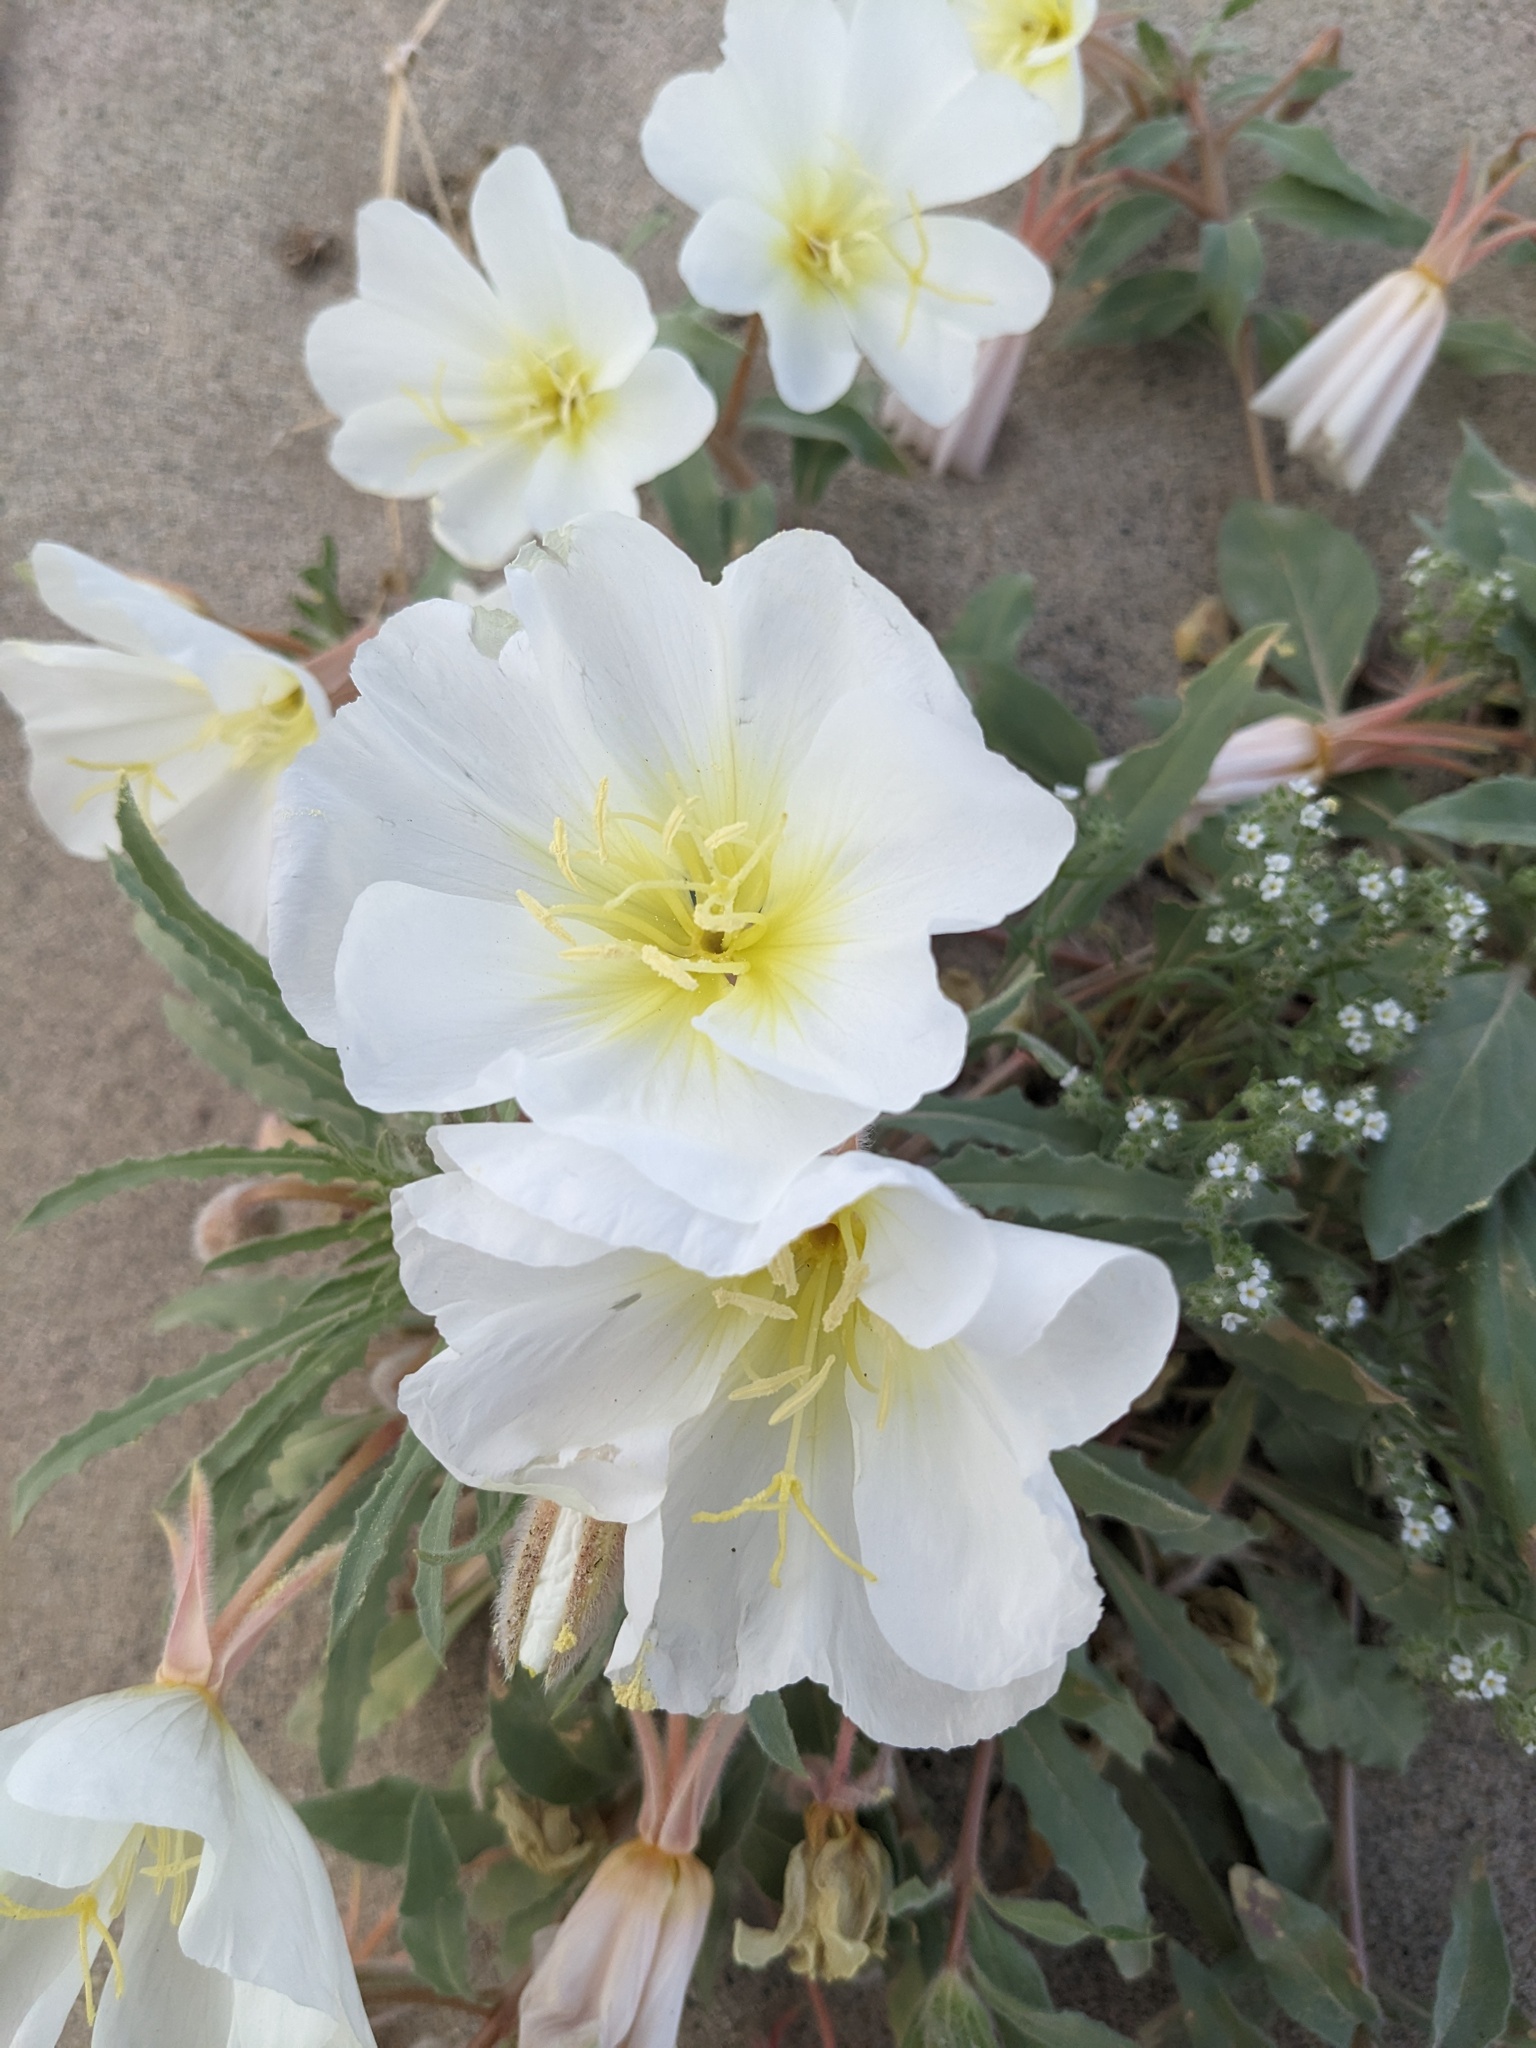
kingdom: Plantae
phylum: Tracheophyta
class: Magnoliopsida
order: Myrtales
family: Onagraceae
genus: Oenothera
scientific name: Oenothera deltoides
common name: Basket evening-primrose
